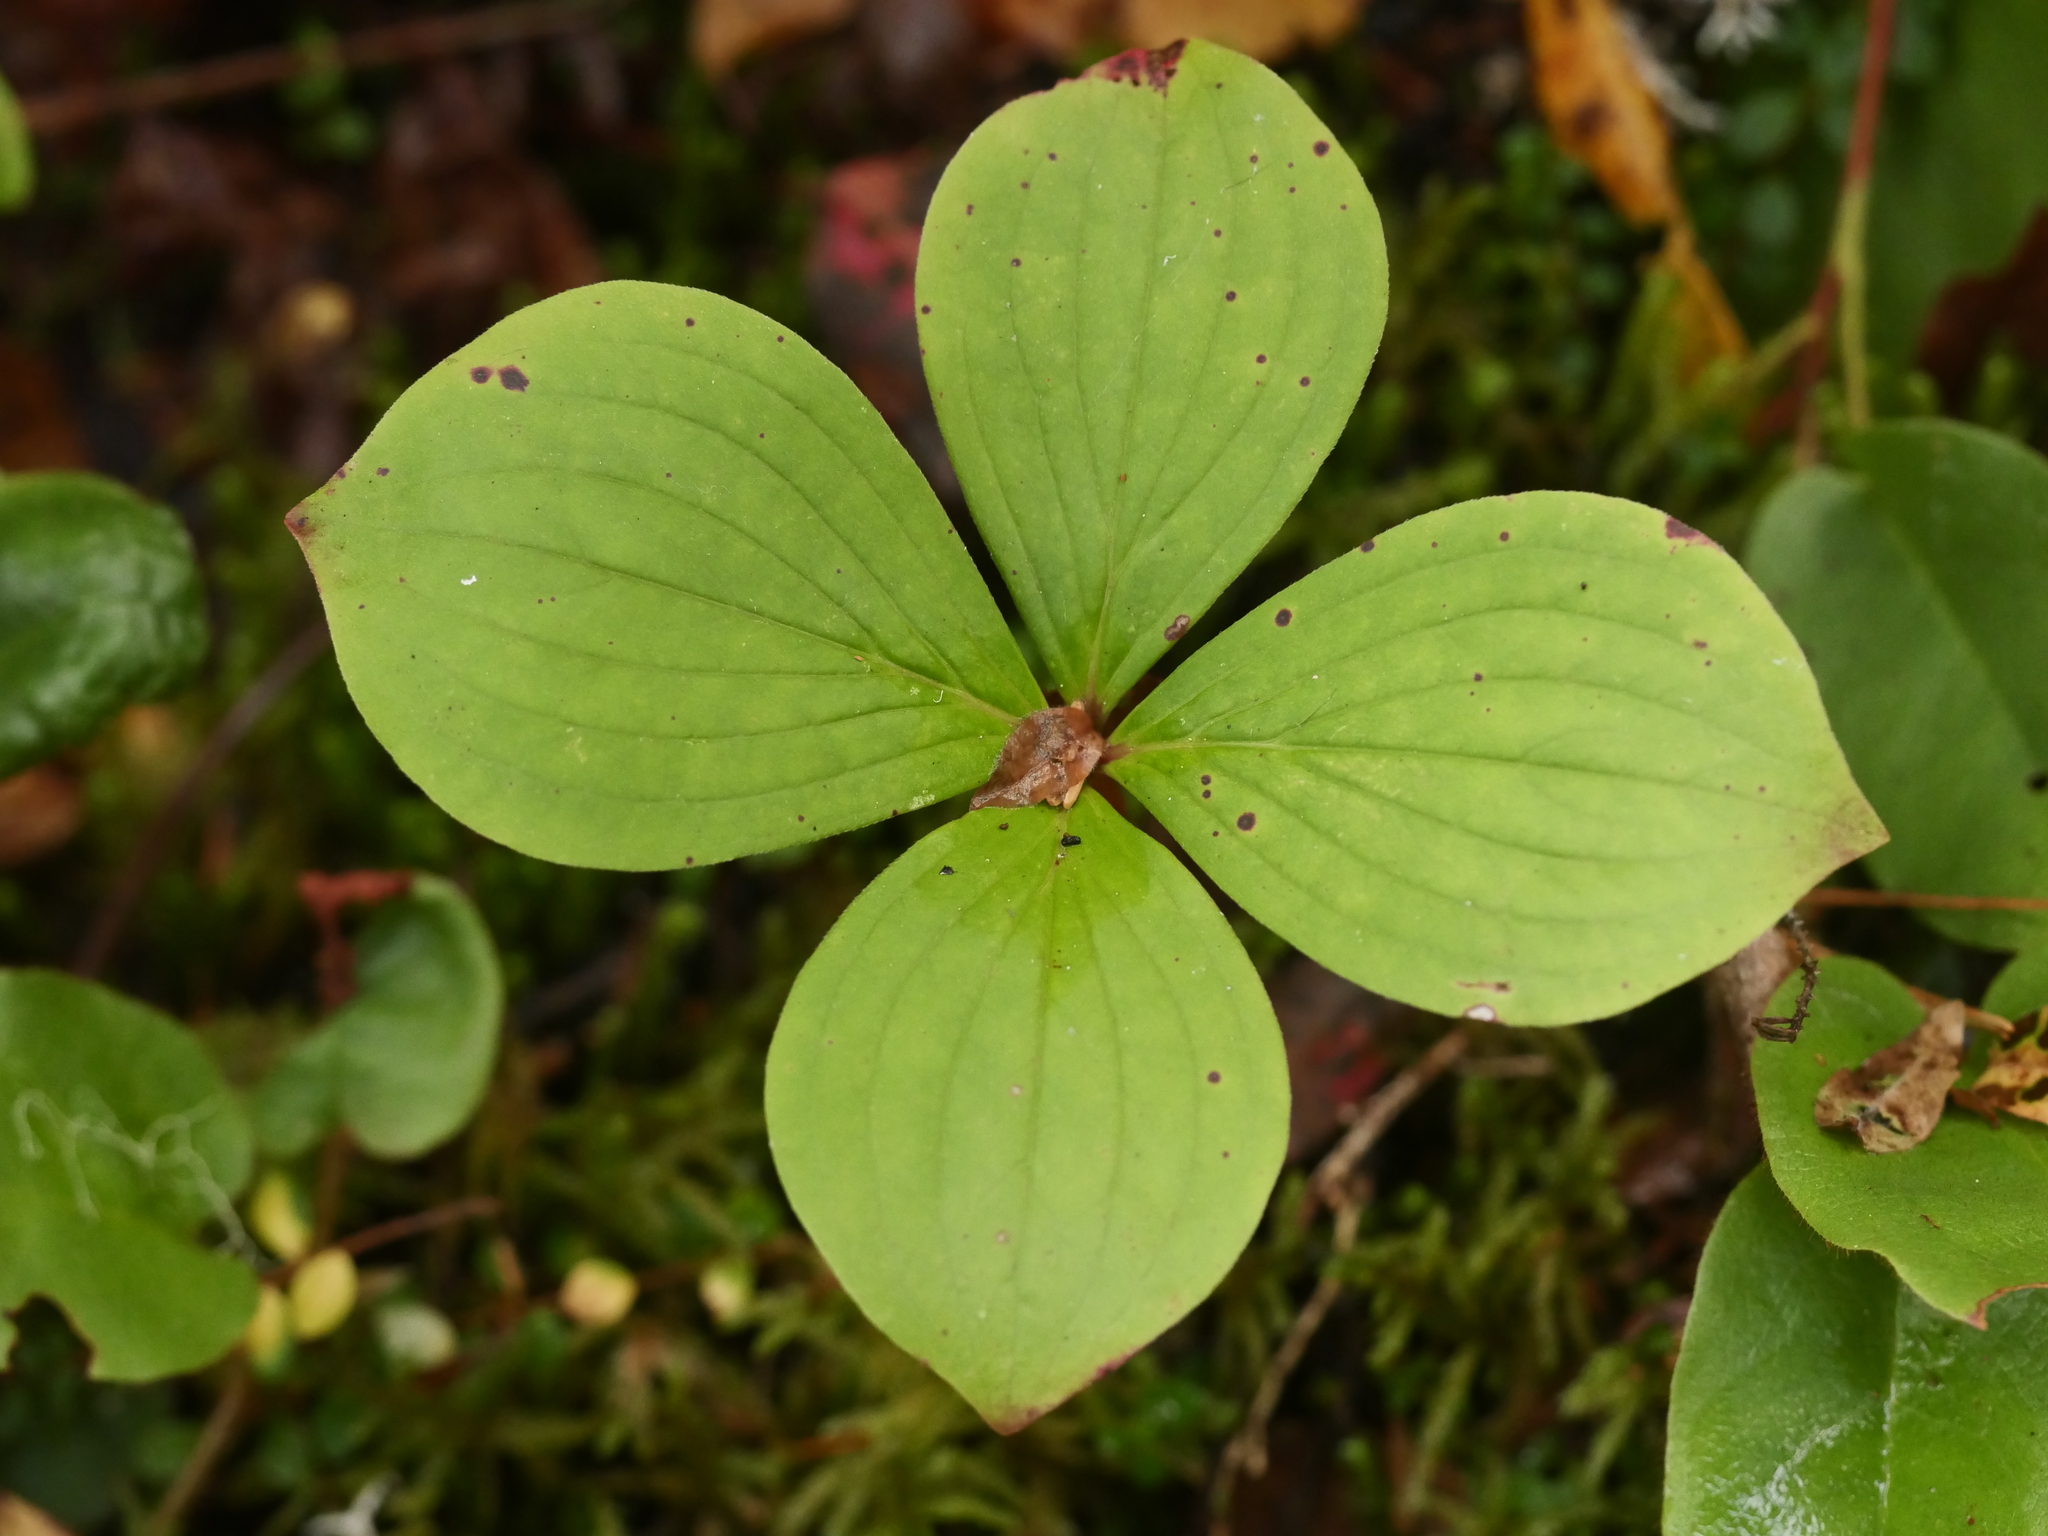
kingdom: Plantae
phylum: Tracheophyta
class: Magnoliopsida
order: Cornales
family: Cornaceae
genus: Cornus
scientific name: Cornus canadensis
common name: Creeping dogwood
